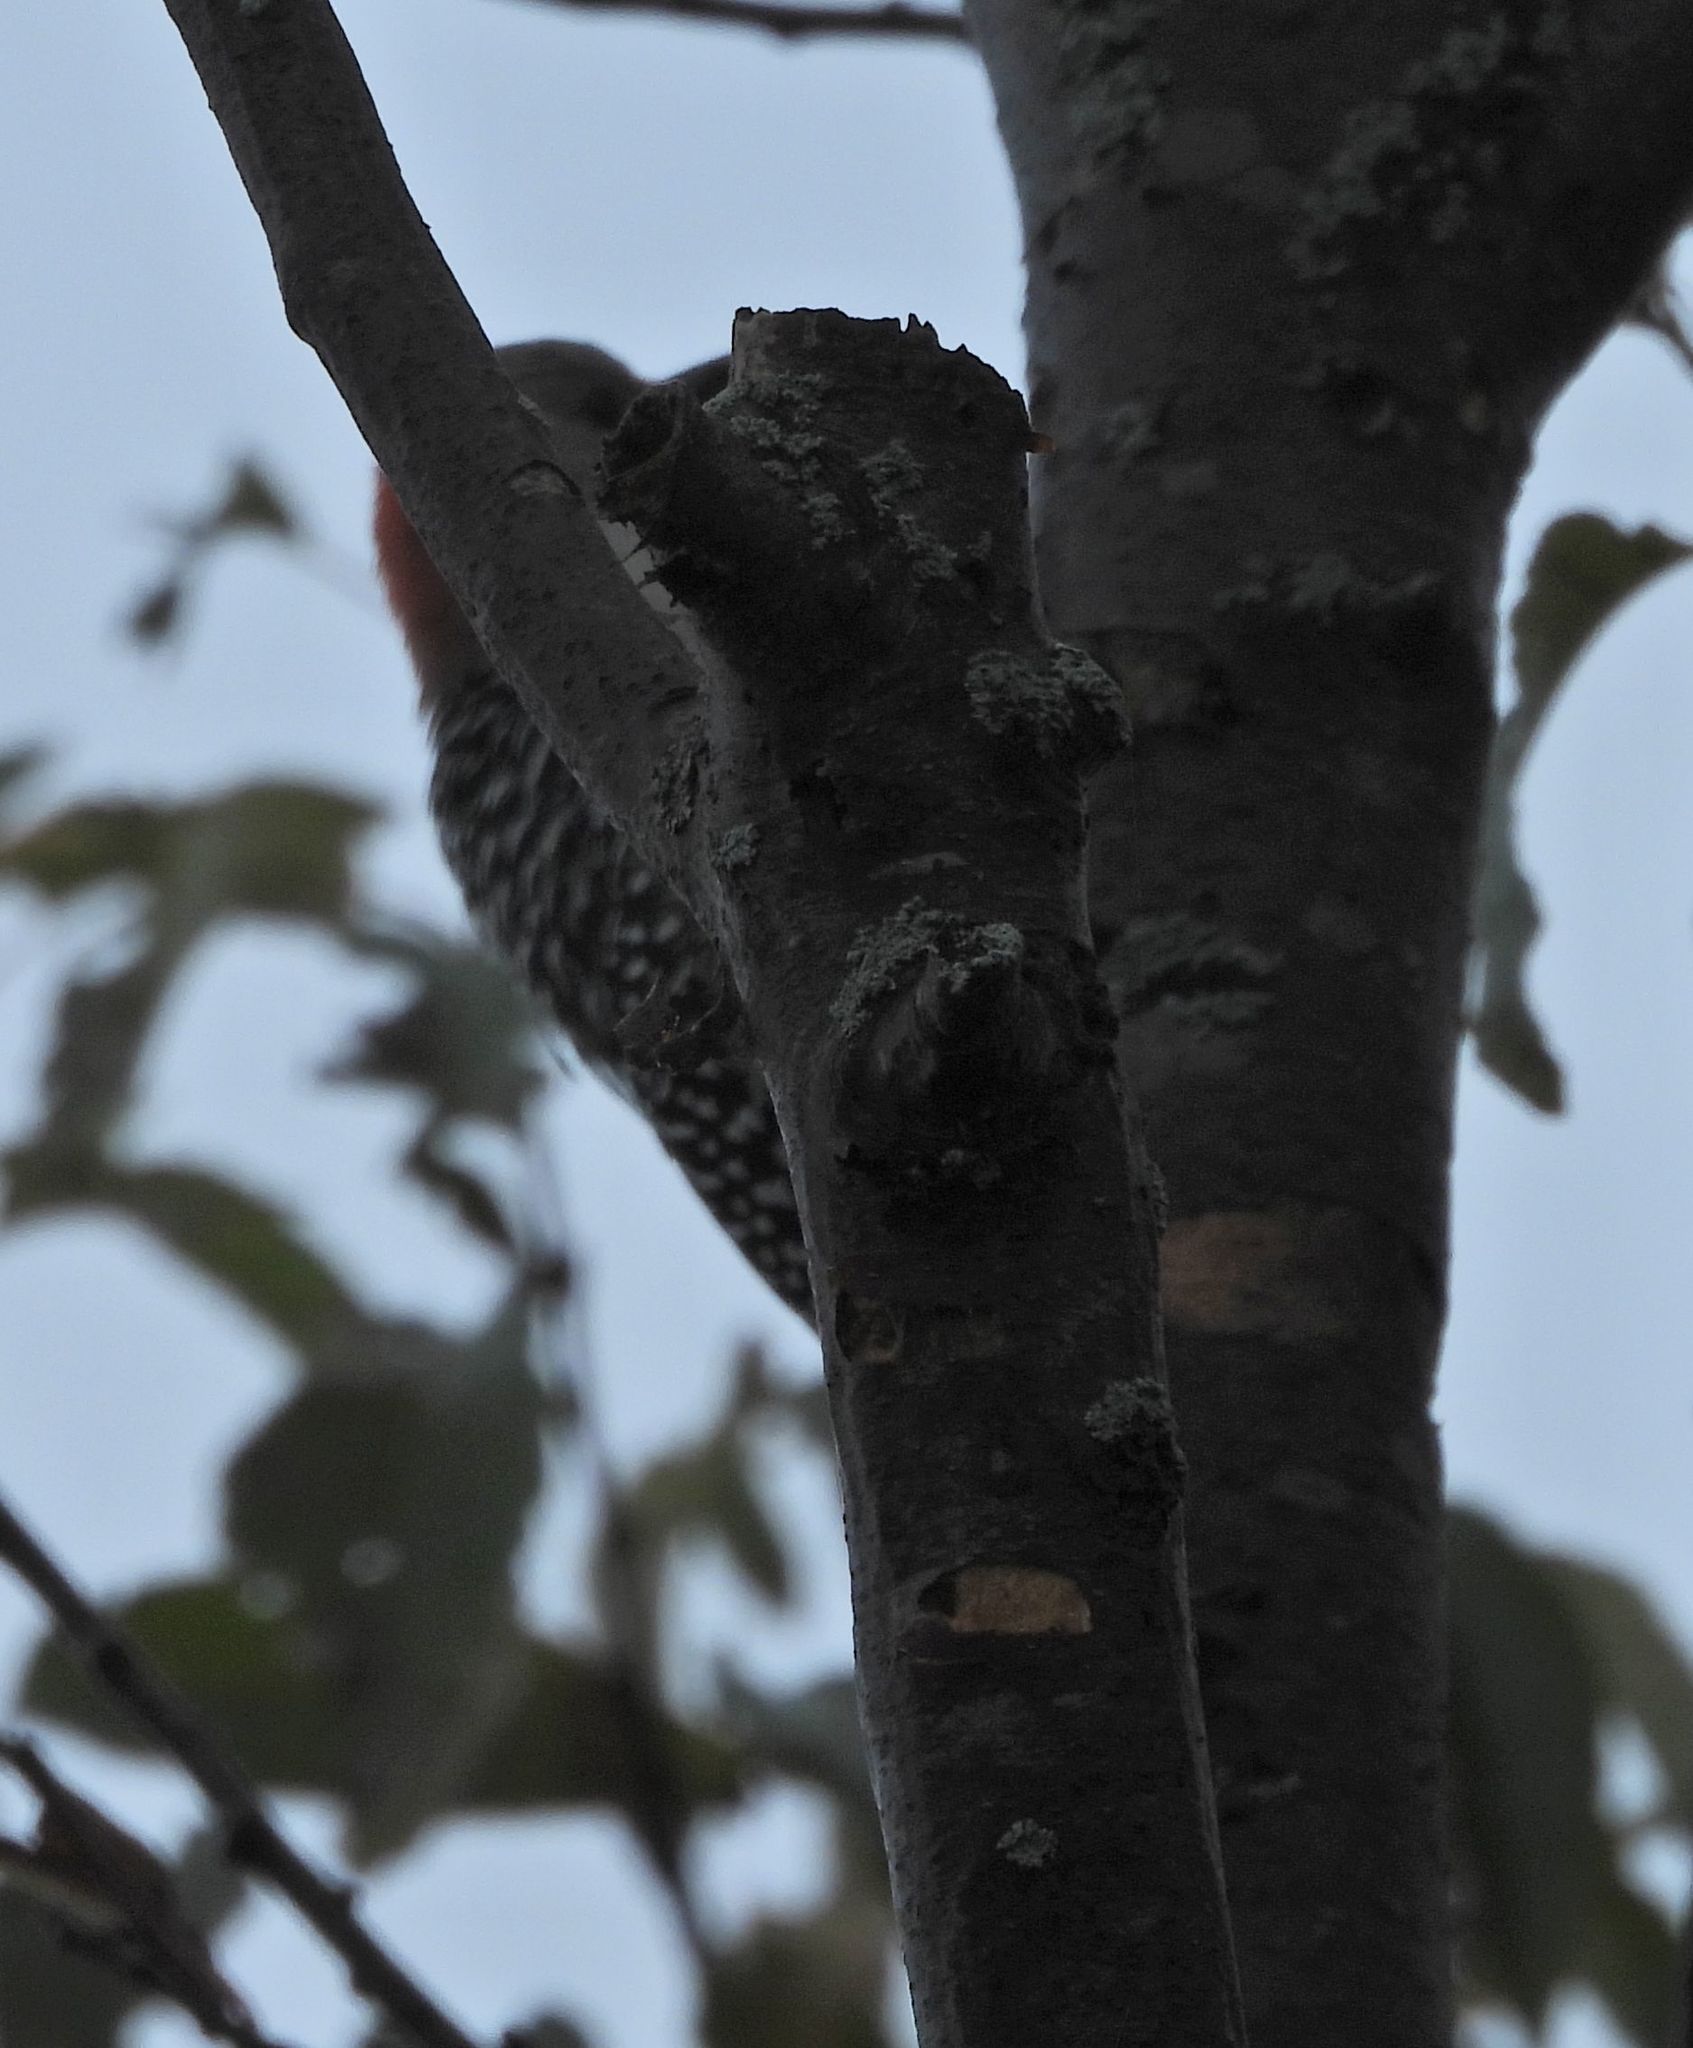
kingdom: Animalia
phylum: Chordata
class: Aves
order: Piciformes
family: Picidae
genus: Melanerpes
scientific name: Melanerpes carolinus
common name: Red-bellied woodpecker
